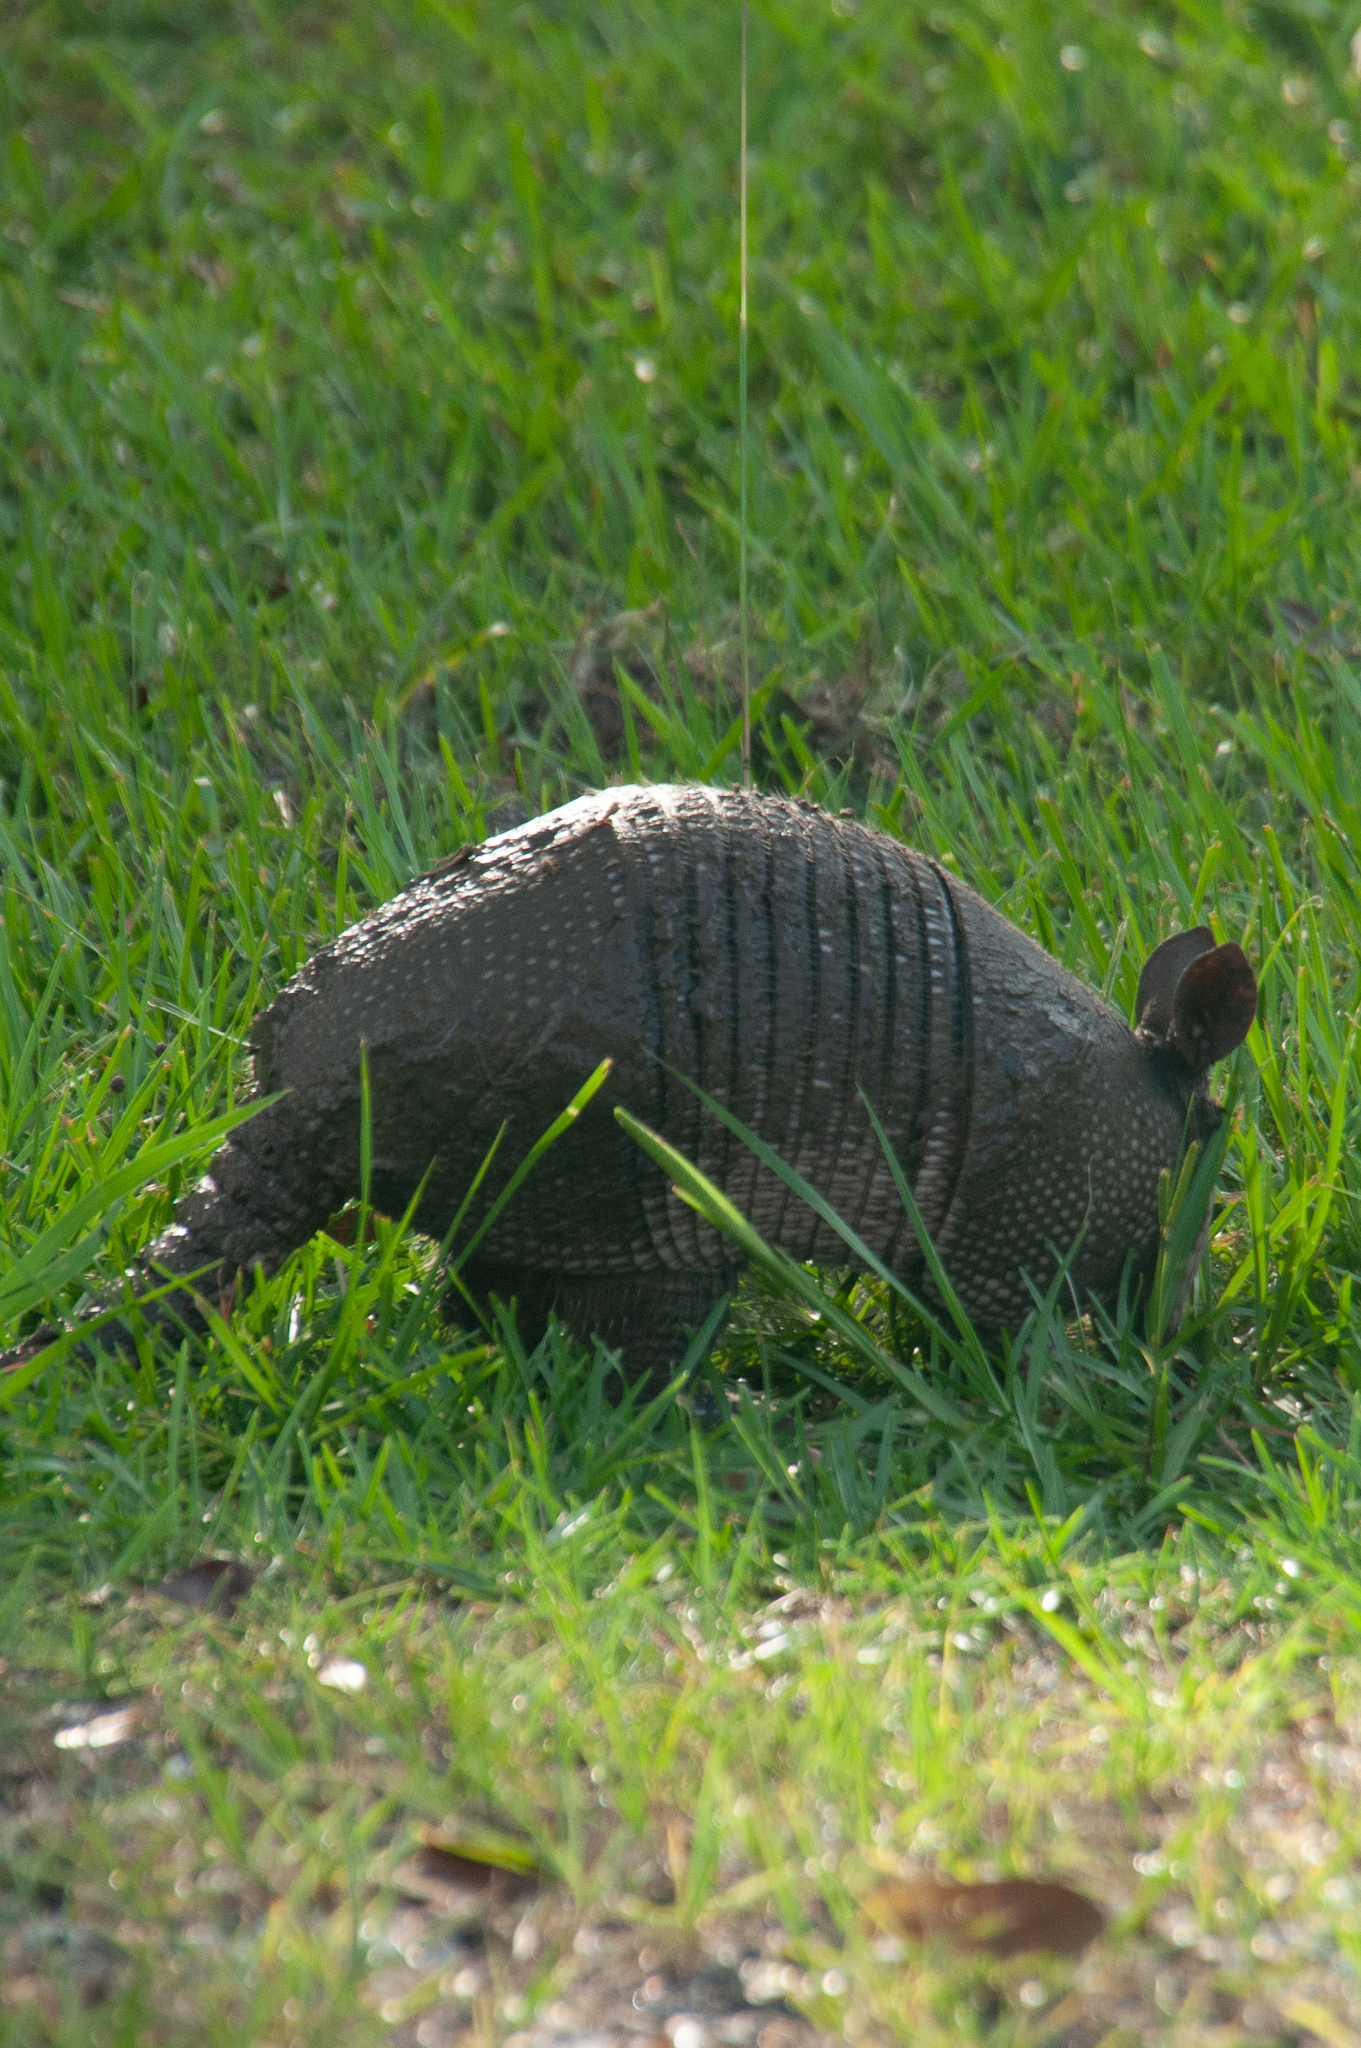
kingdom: Animalia
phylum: Chordata
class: Mammalia
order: Cingulata
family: Dasypodidae
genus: Dasypus
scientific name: Dasypus novemcinctus
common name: Nine-banded armadillo
